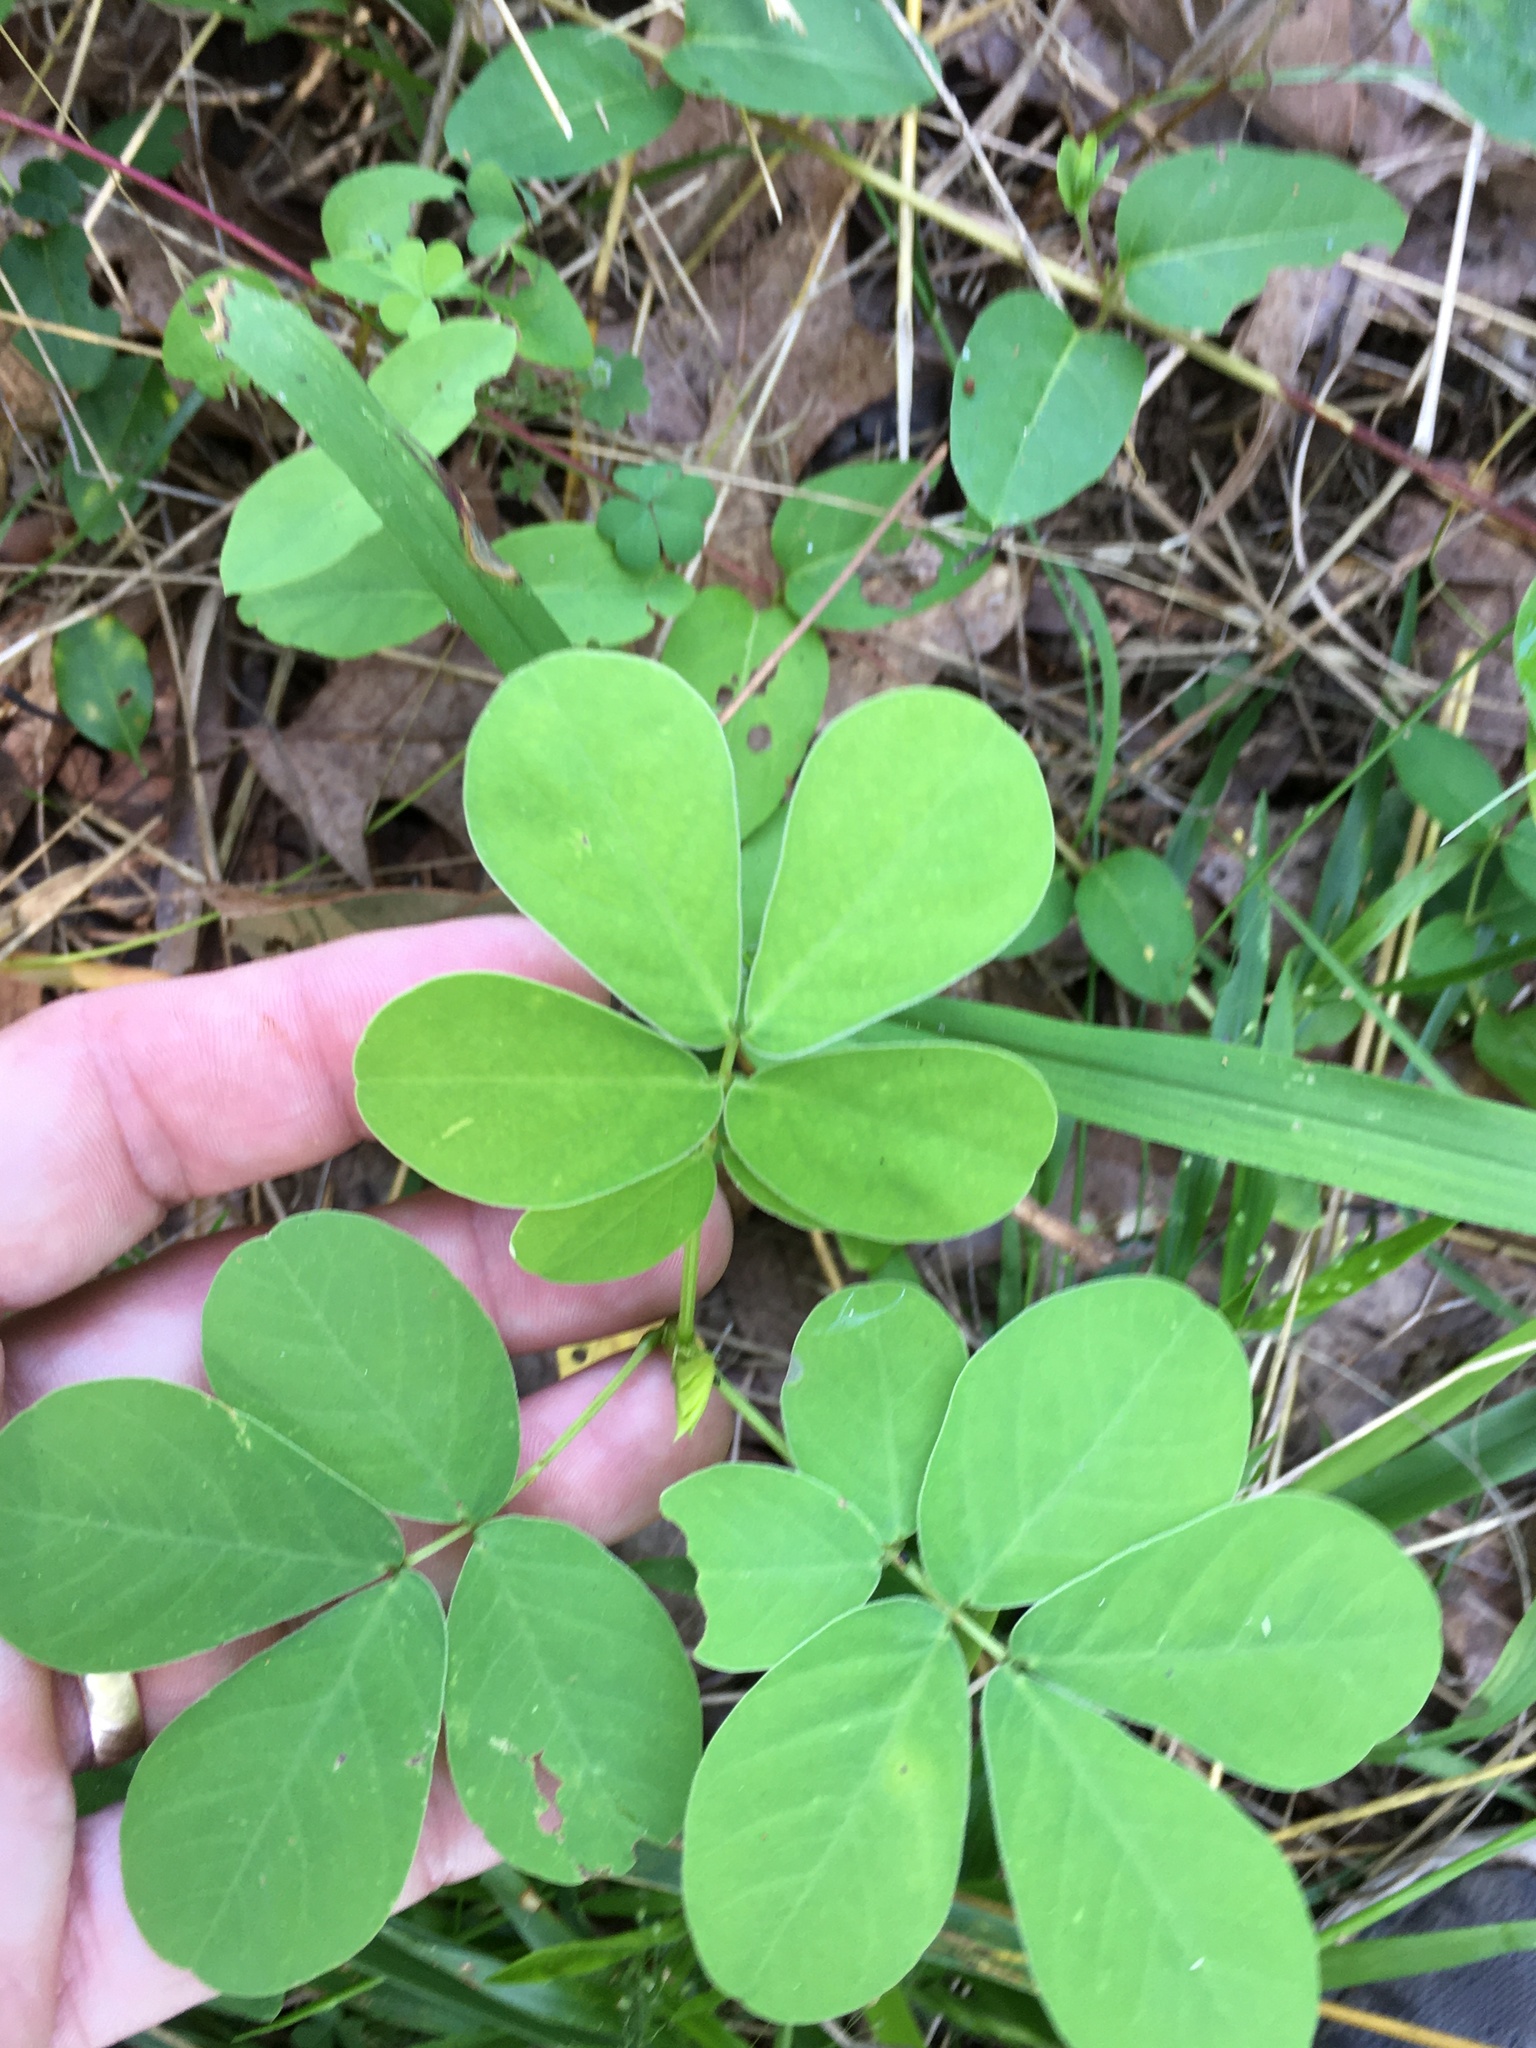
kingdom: Plantae
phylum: Tracheophyta
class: Magnoliopsida
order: Fabales
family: Fabaceae
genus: Senna
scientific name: Senna obtusifolia
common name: Java-bean
